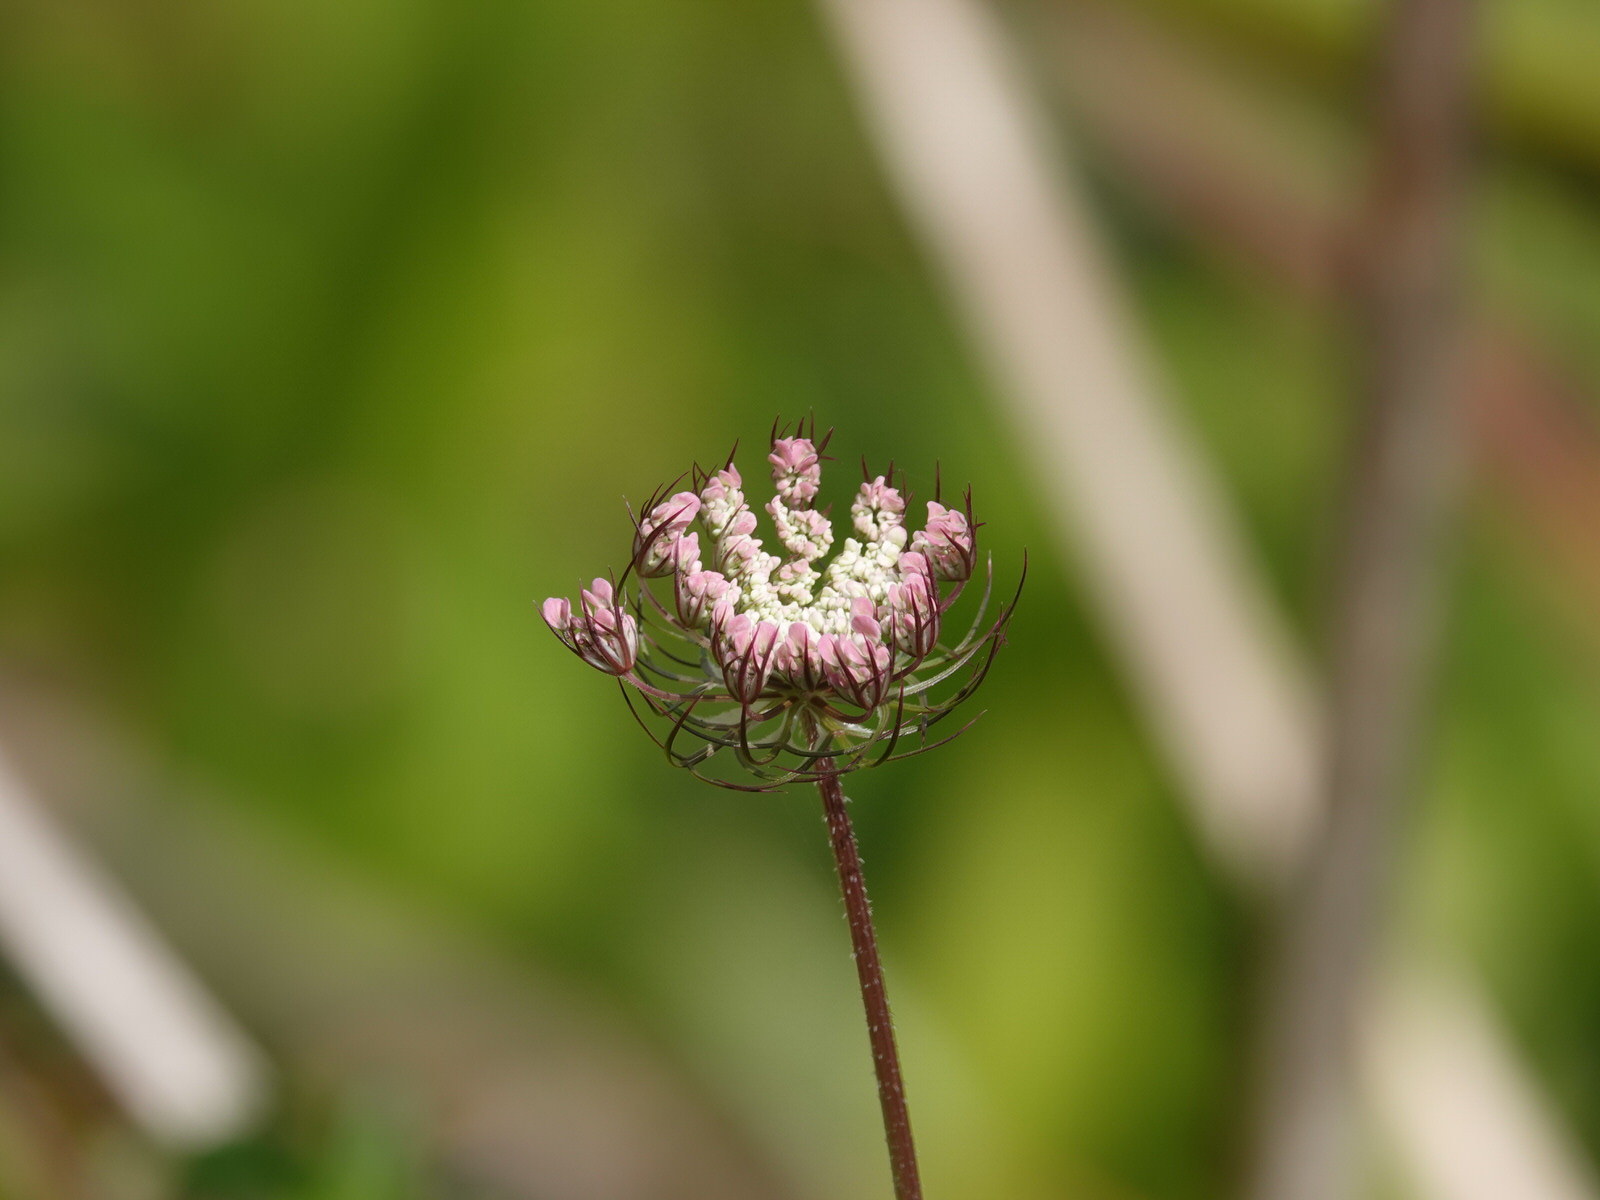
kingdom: Plantae
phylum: Tracheophyta
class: Magnoliopsida
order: Apiales
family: Apiaceae
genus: Daucus
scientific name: Daucus carota
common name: Wild carrot
